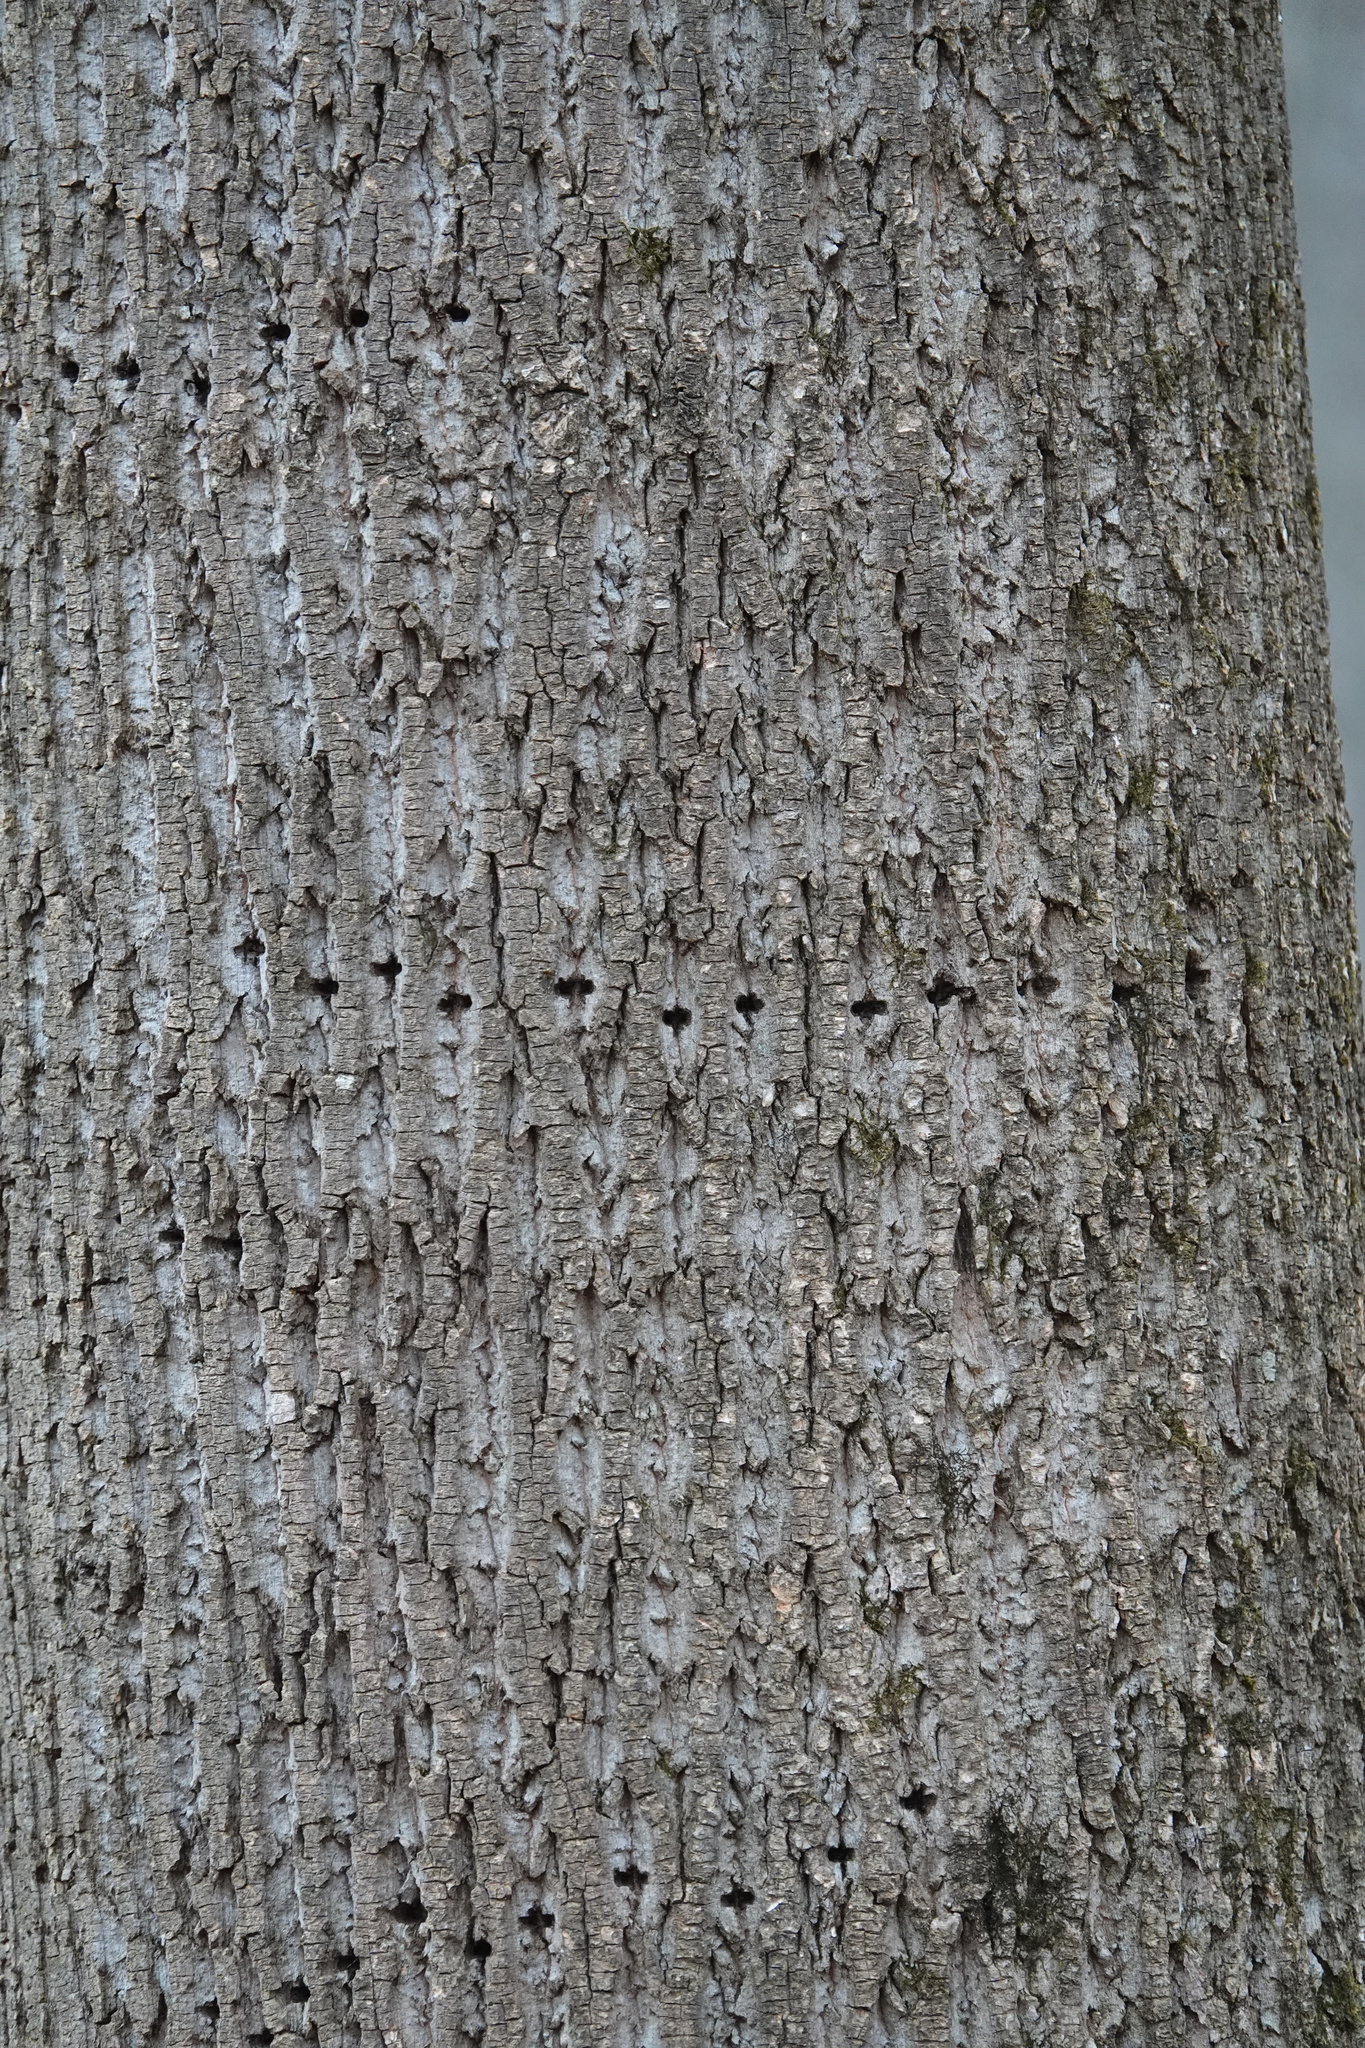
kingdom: Animalia
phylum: Chordata
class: Aves
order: Piciformes
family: Picidae
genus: Sphyrapicus
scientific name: Sphyrapicus varius
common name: Yellow-bellied sapsucker
